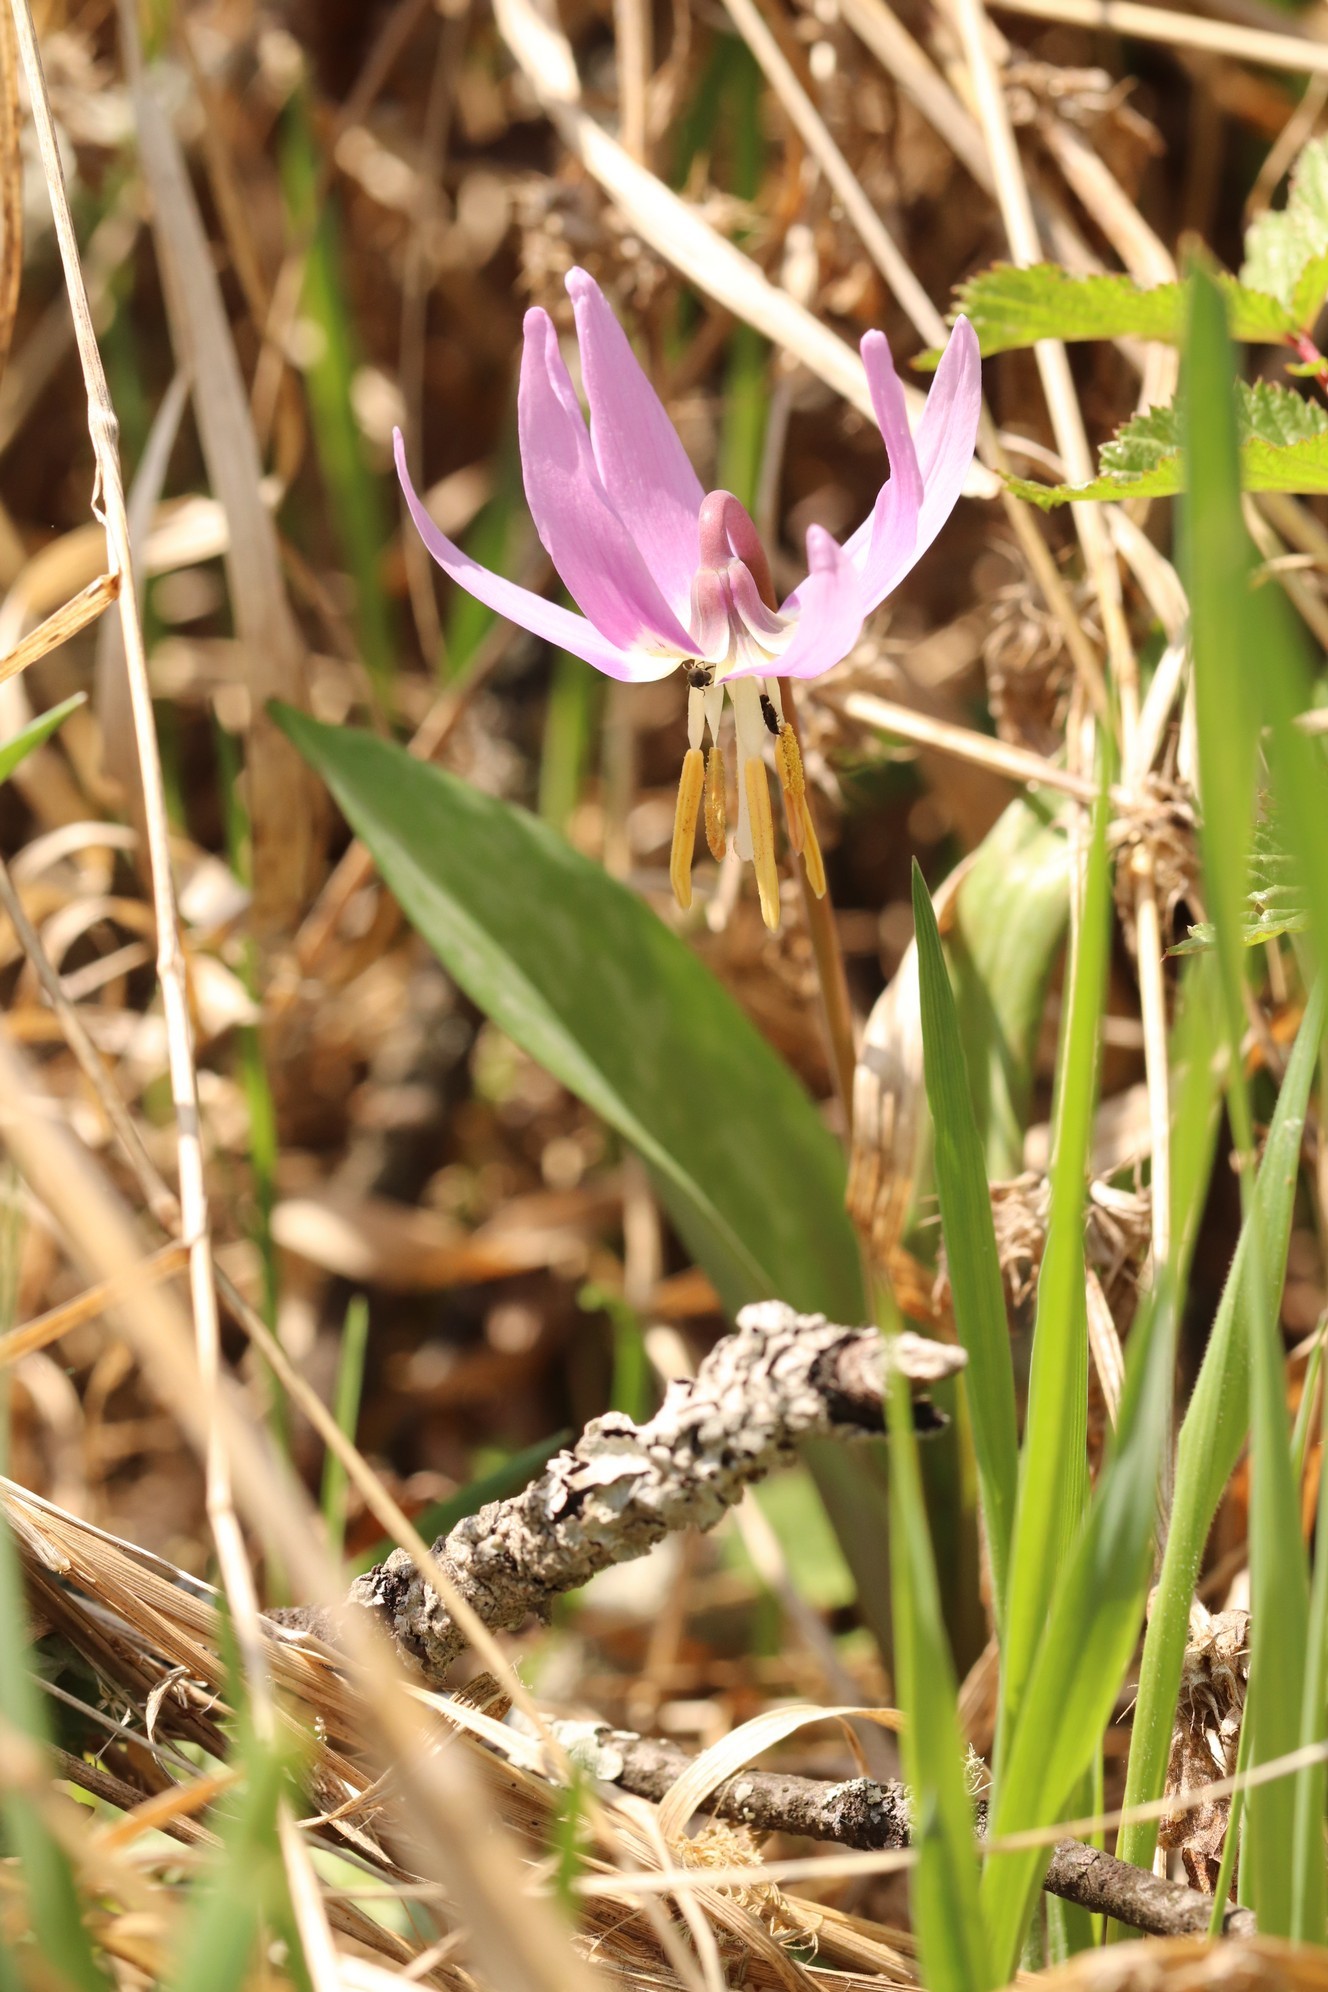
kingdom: Plantae
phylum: Tracheophyta
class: Liliopsida
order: Liliales
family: Liliaceae
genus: Erythronium
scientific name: Erythronium sibiricum
